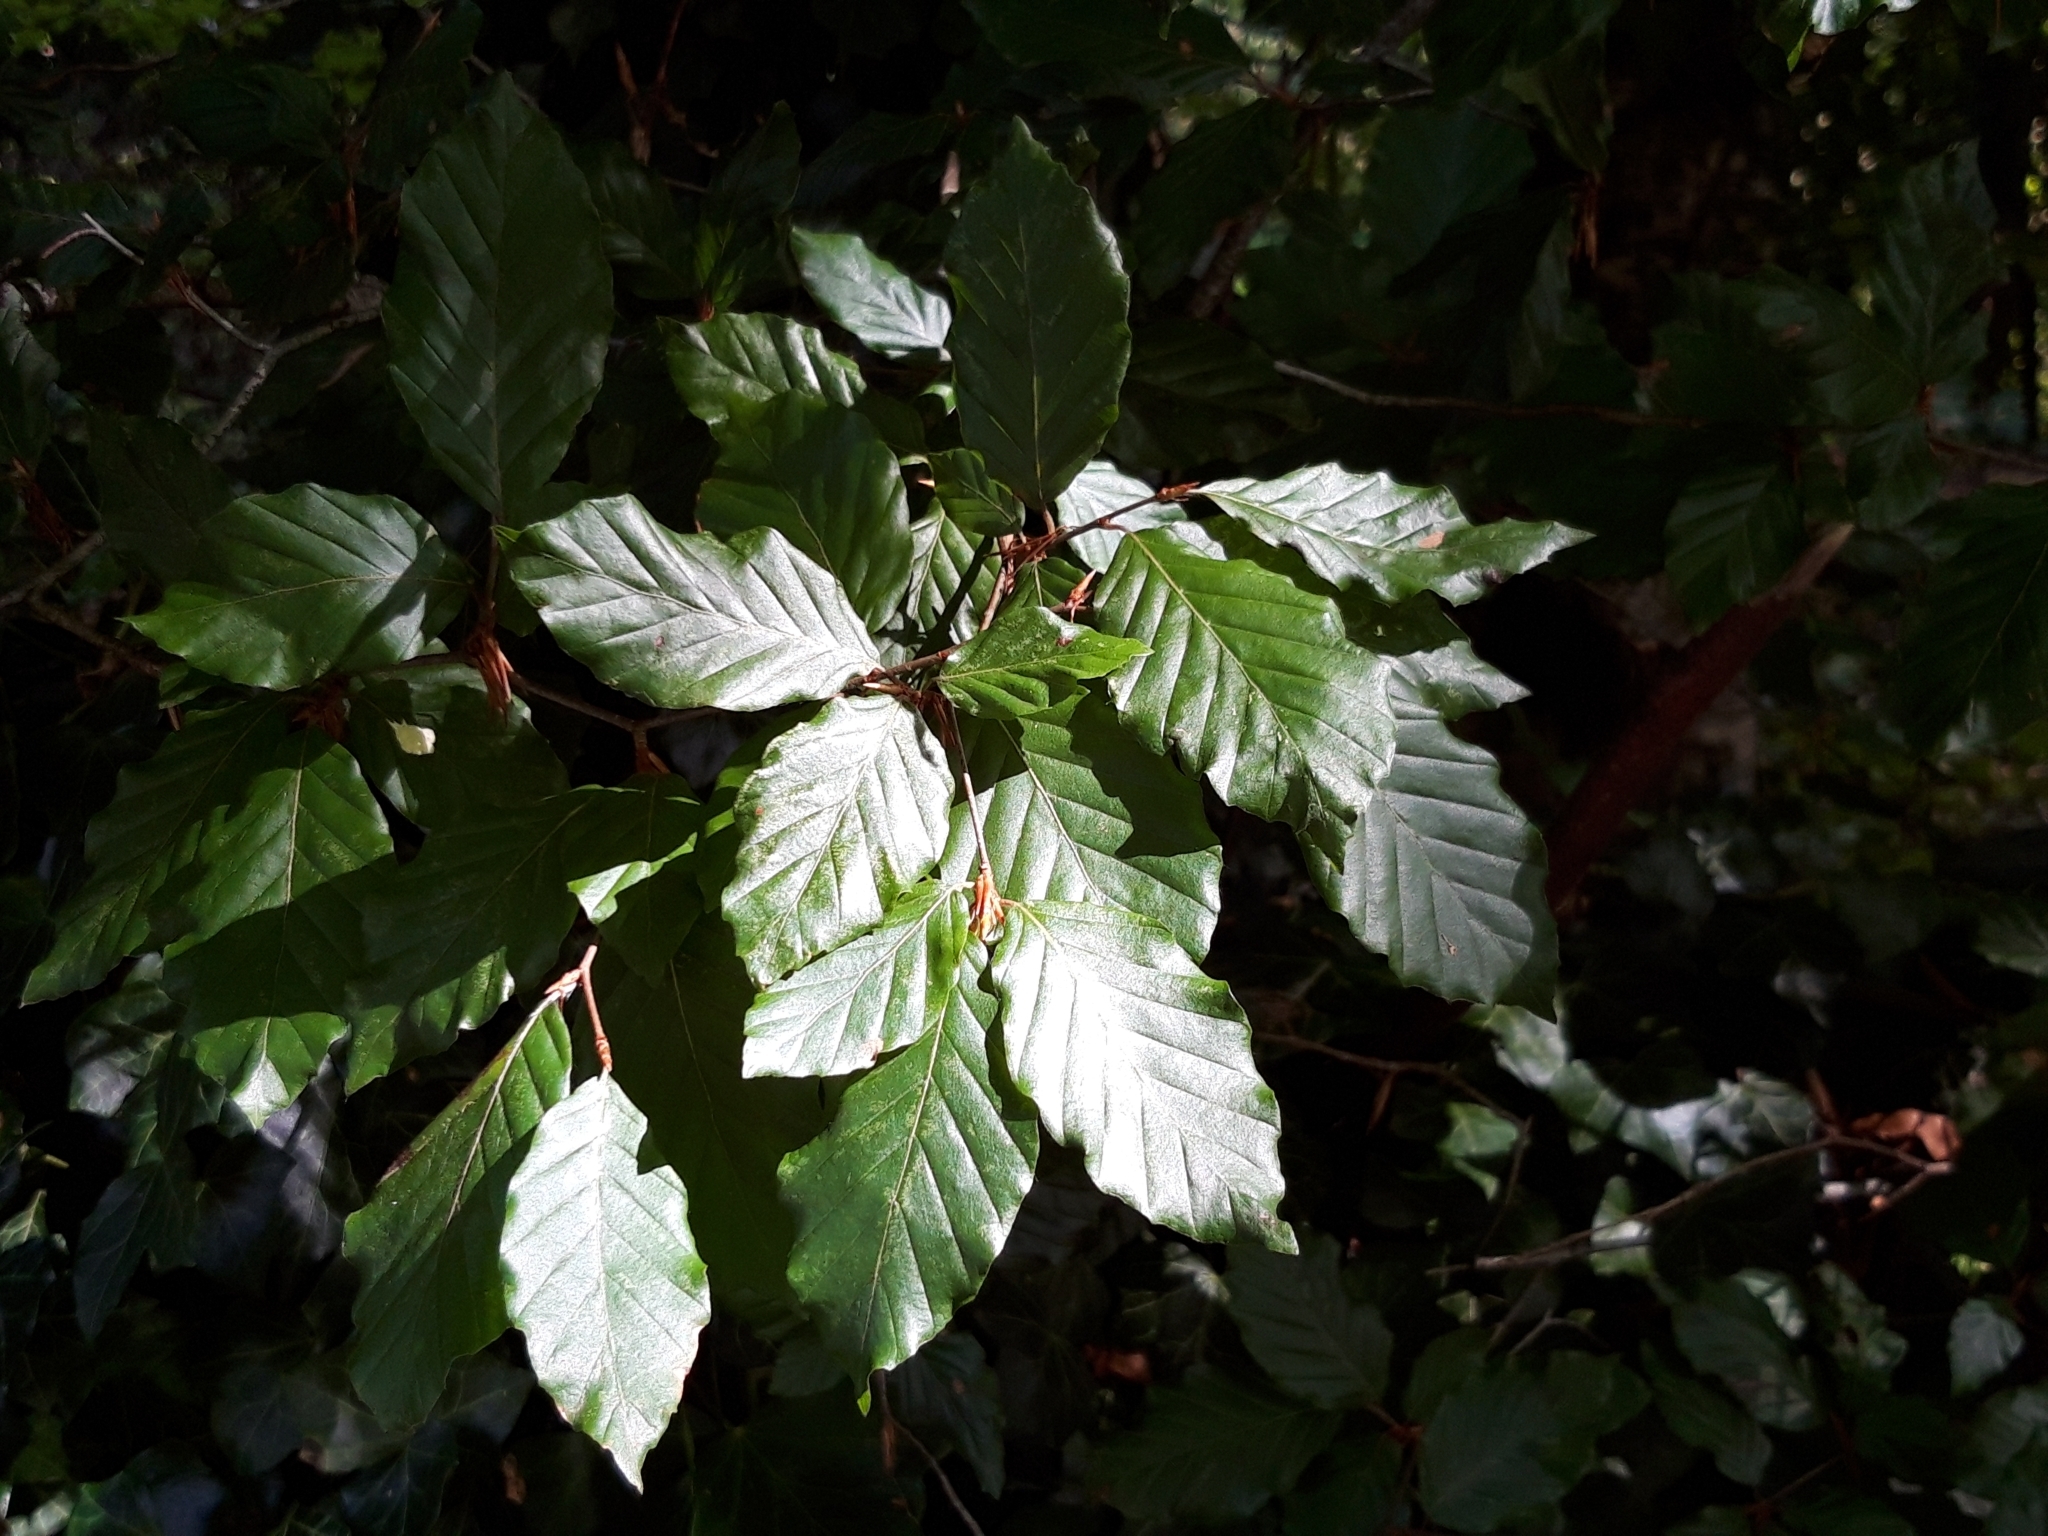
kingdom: Plantae
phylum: Tracheophyta
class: Magnoliopsida
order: Fagales
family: Fagaceae
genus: Fagus
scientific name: Fagus sylvatica
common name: Beech
